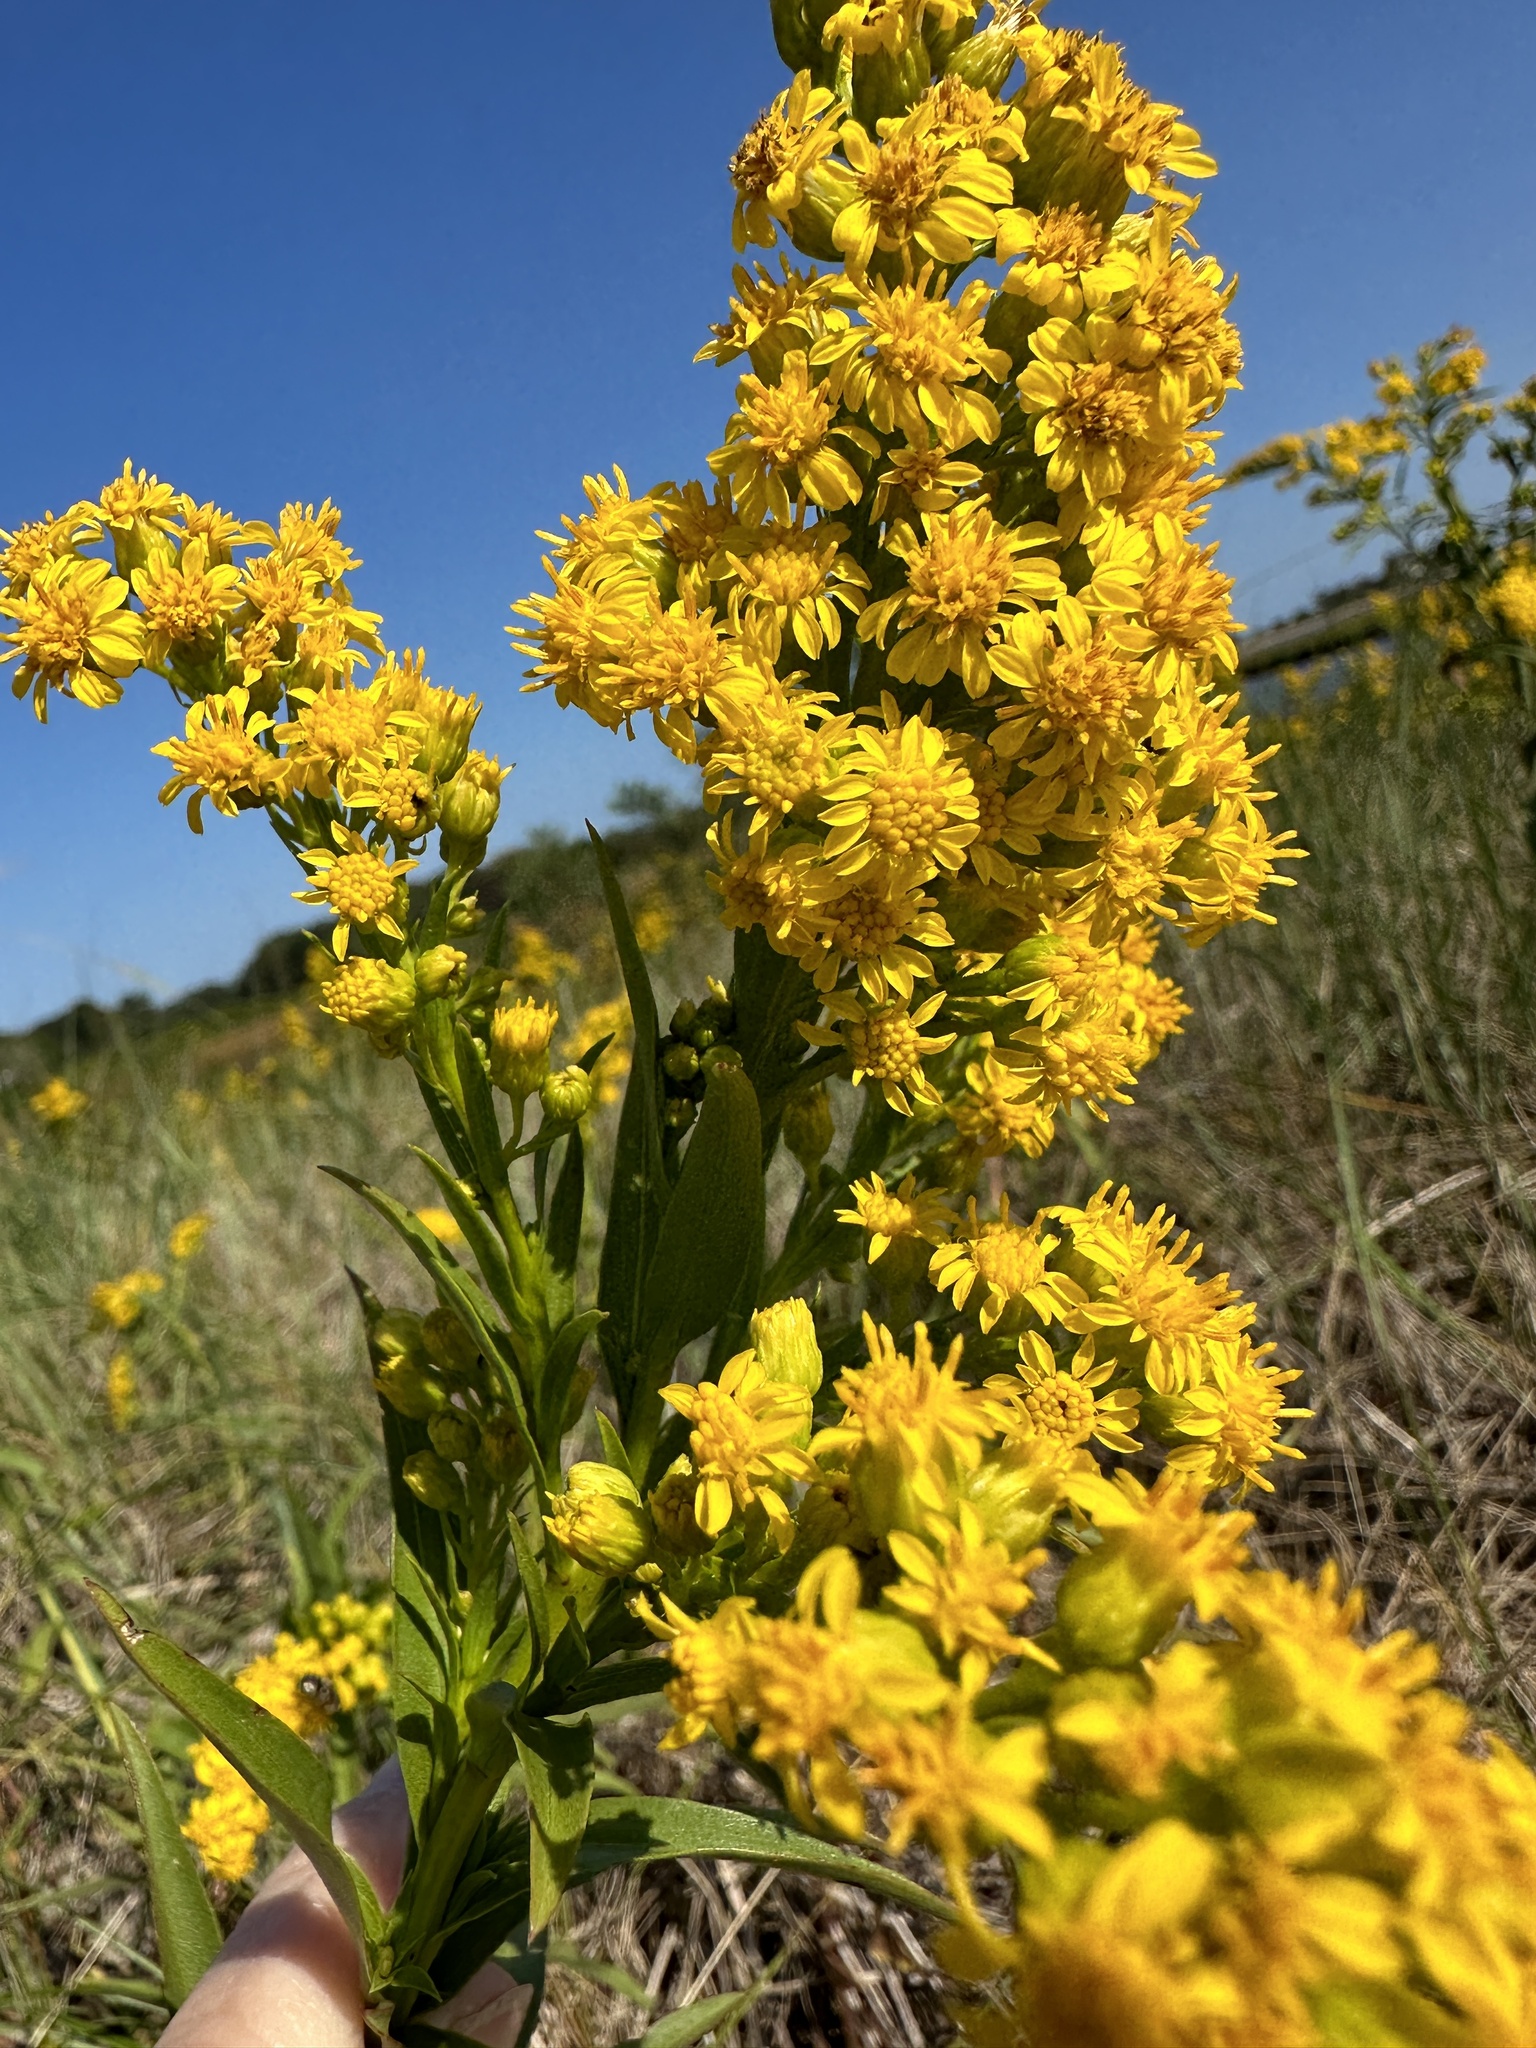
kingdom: Plantae
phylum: Tracheophyta
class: Magnoliopsida
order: Asterales
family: Asteraceae
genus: Solidago
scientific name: Solidago sempervirens
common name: Salt-marsh goldenrod
